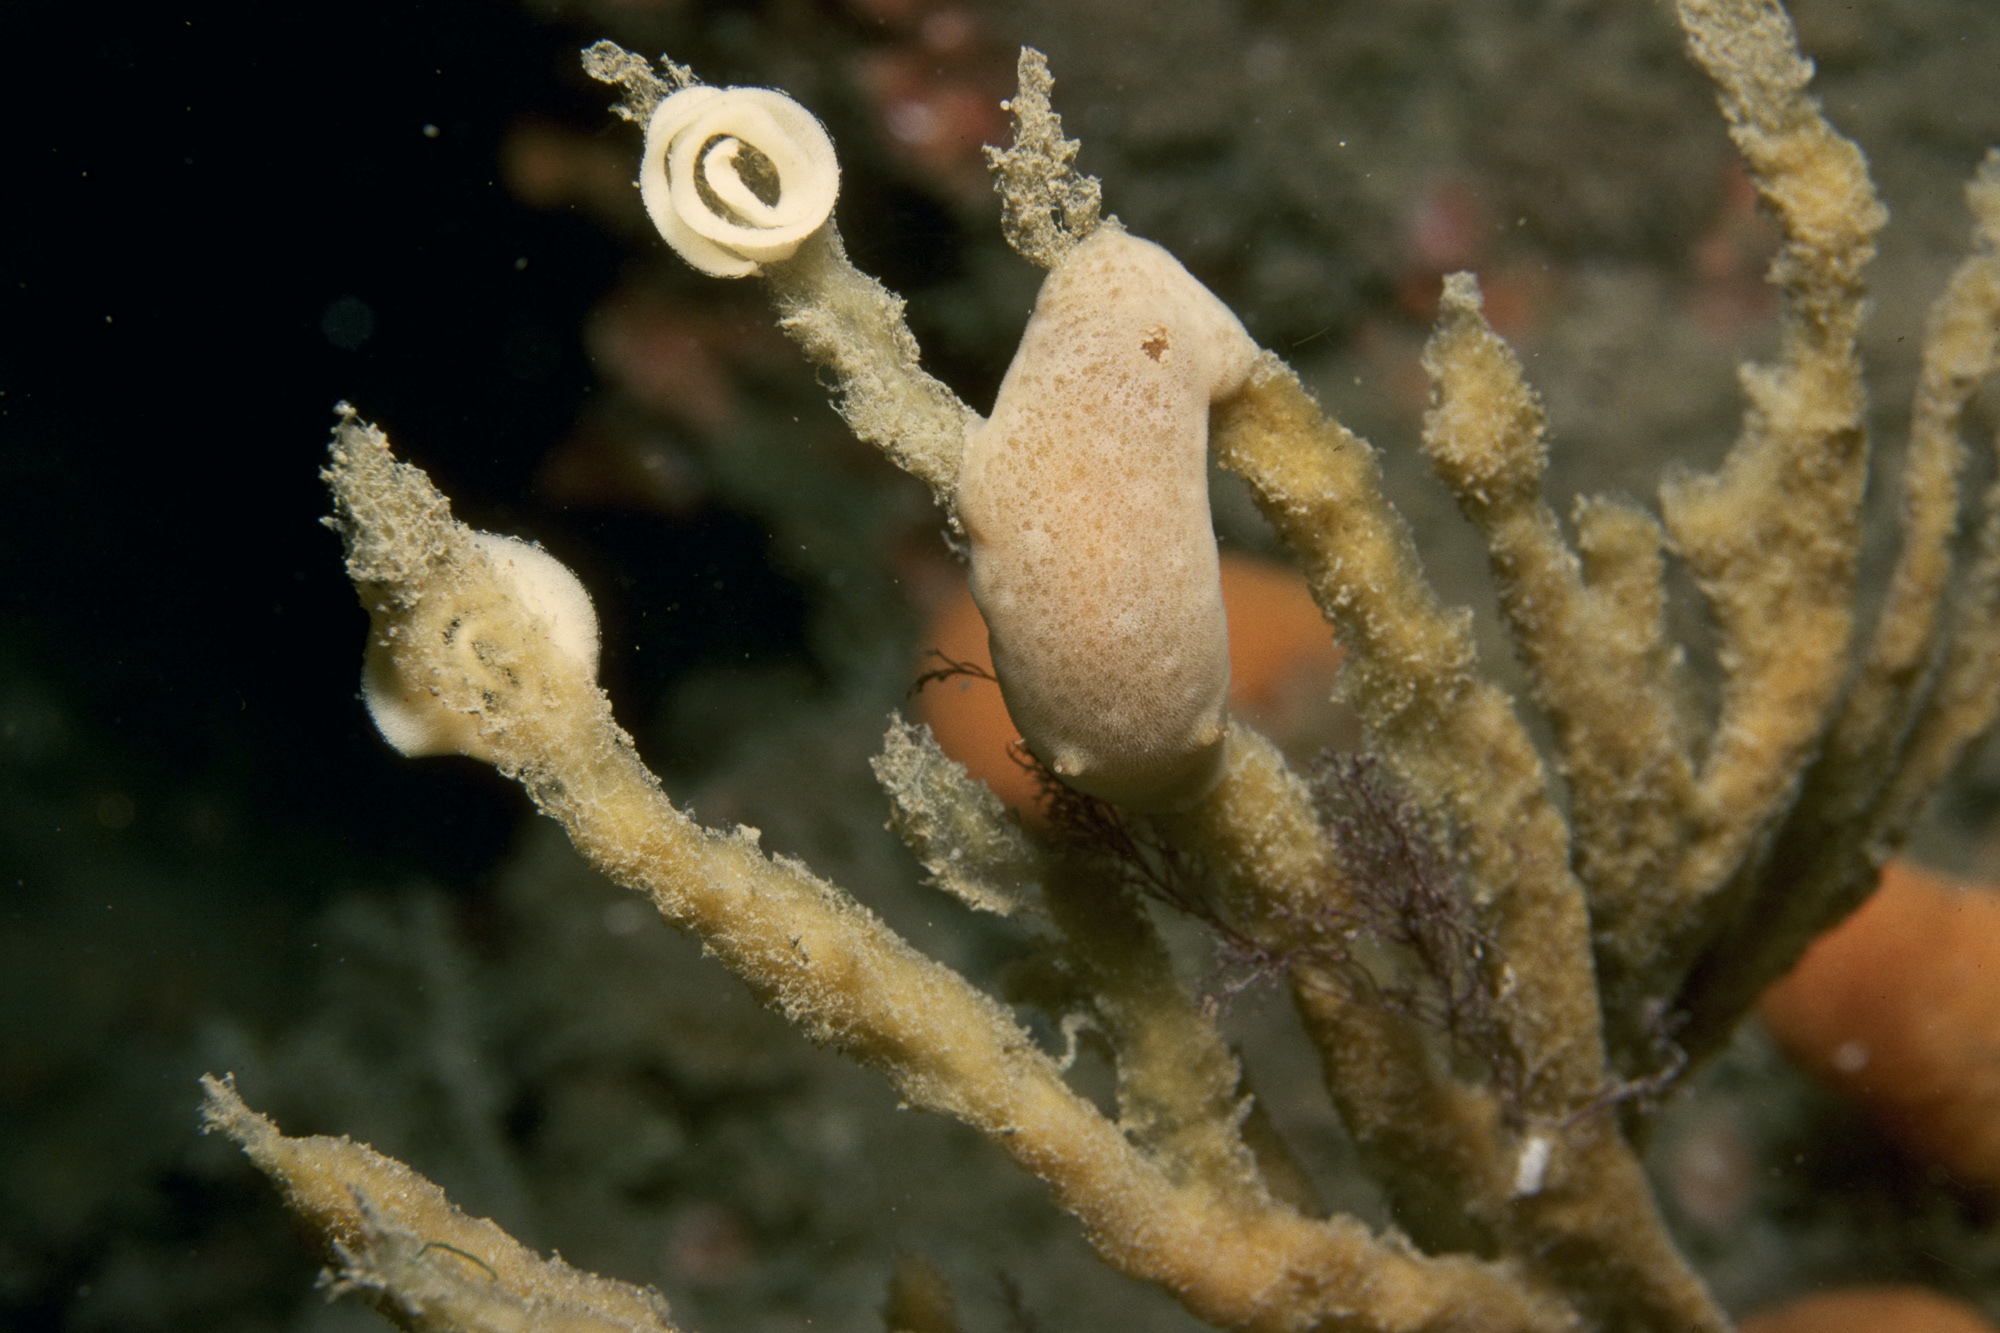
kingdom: Animalia
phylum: Mollusca
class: Gastropoda
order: Nudibranchia
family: Discodorididae
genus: Jorunna
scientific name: Jorunna tomentosa
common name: Grey sea slug
